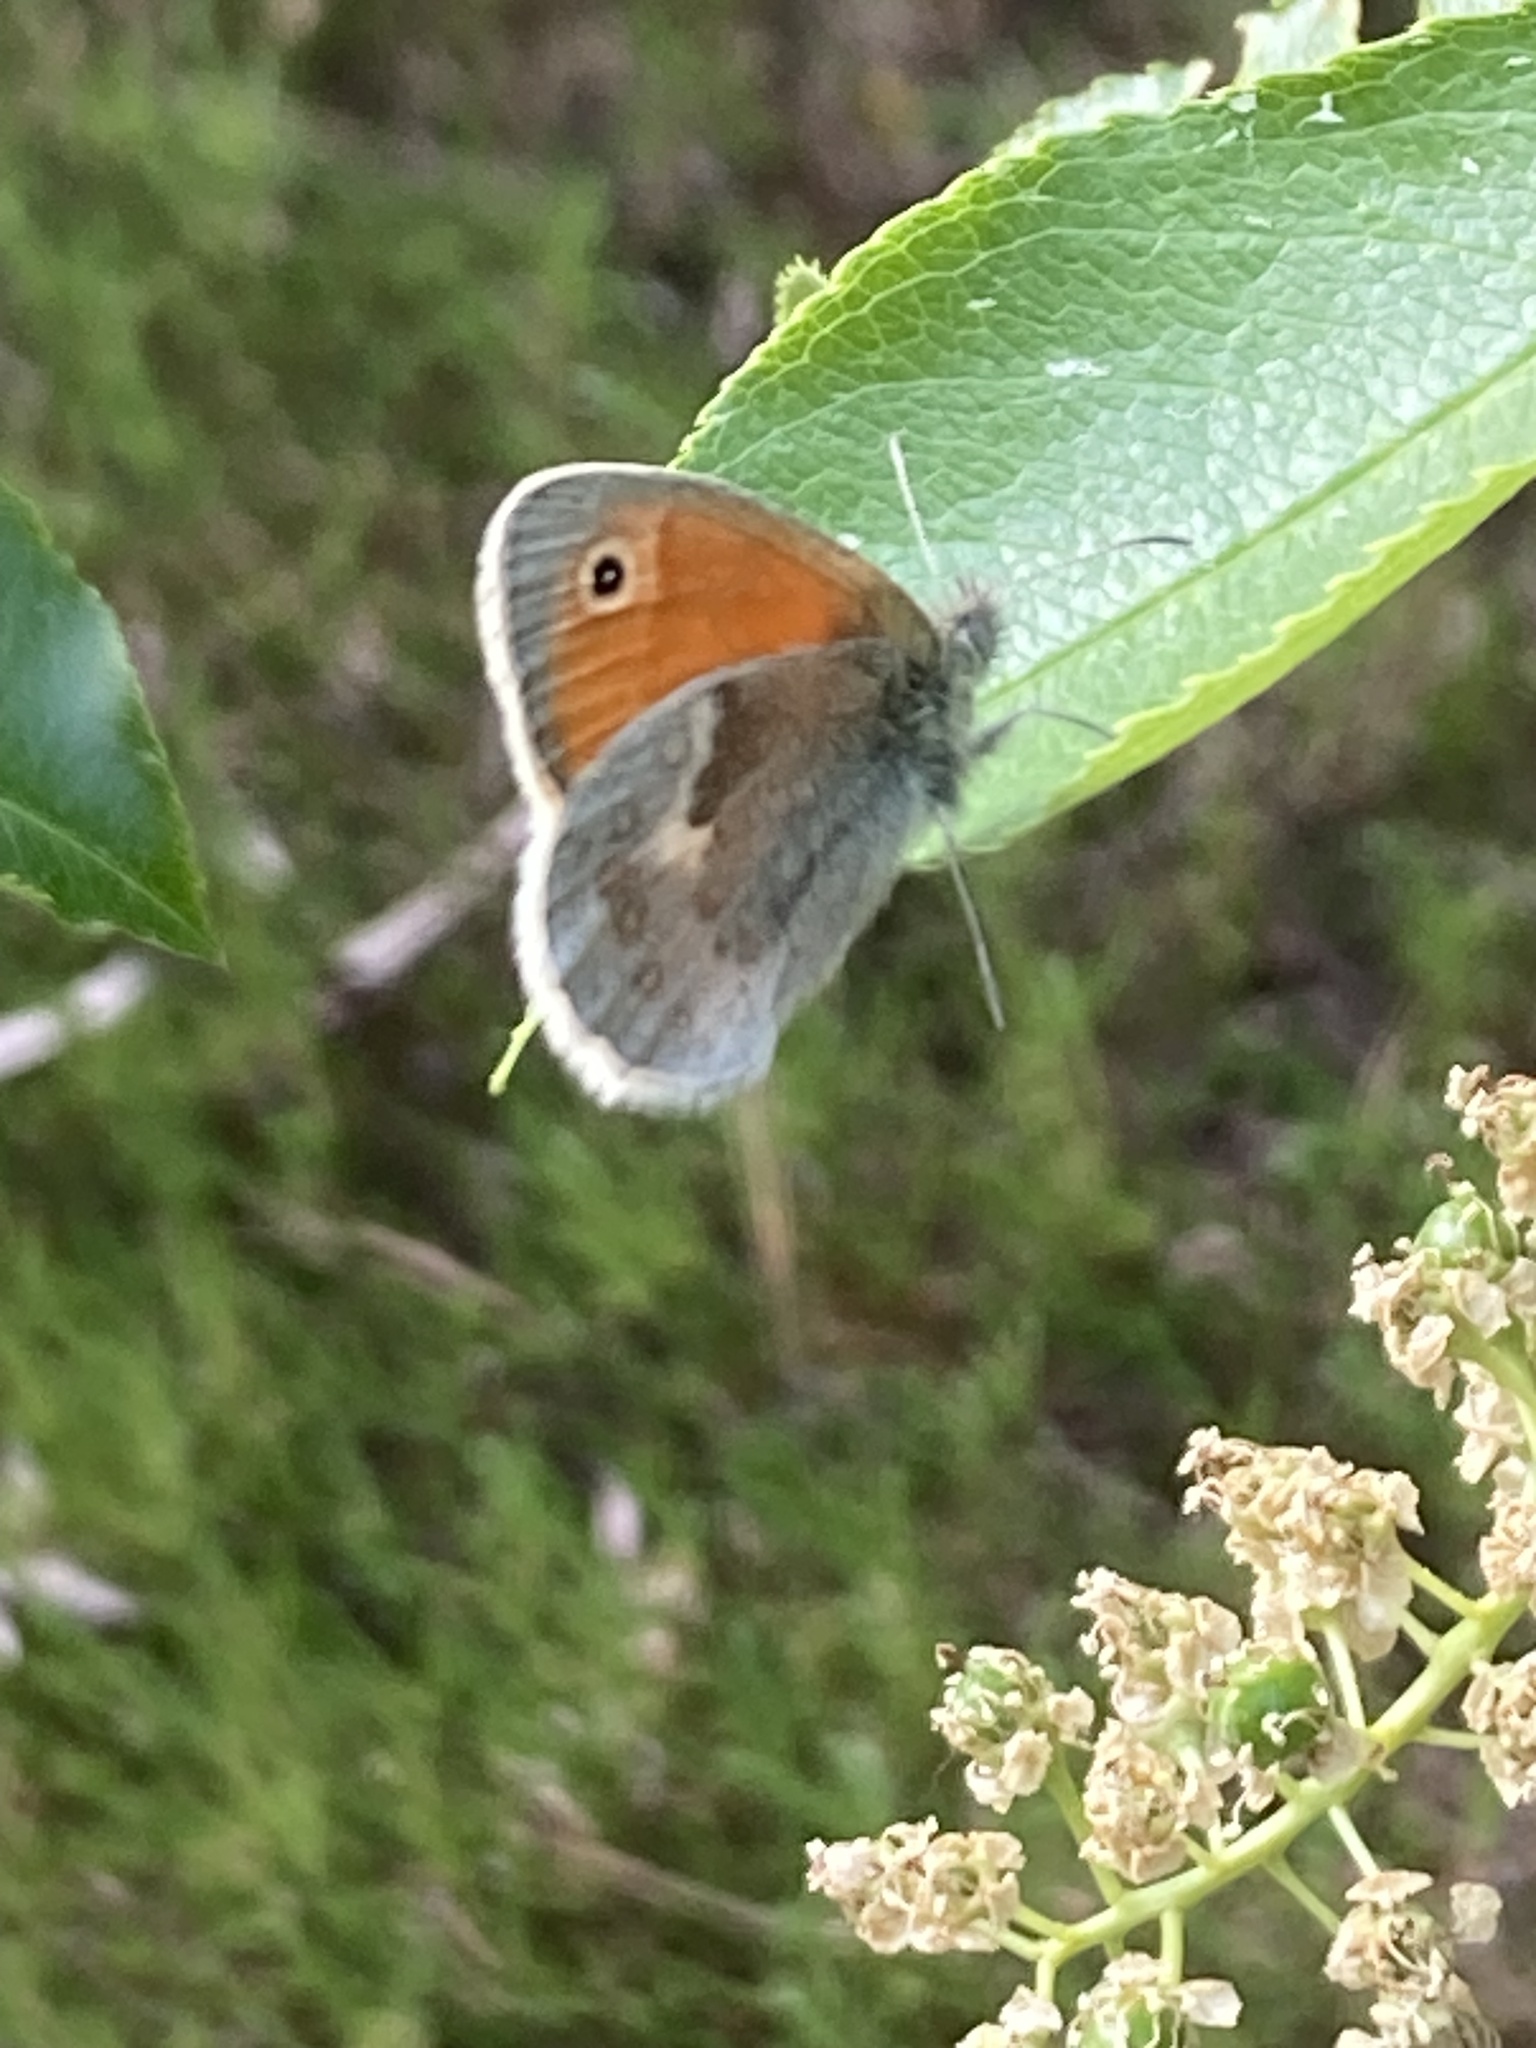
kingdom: Animalia
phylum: Arthropoda
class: Insecta
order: Lepidoptera
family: Nymphalidae
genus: Coenonympha
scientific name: Coenonympha pamphilus
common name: Small heath
